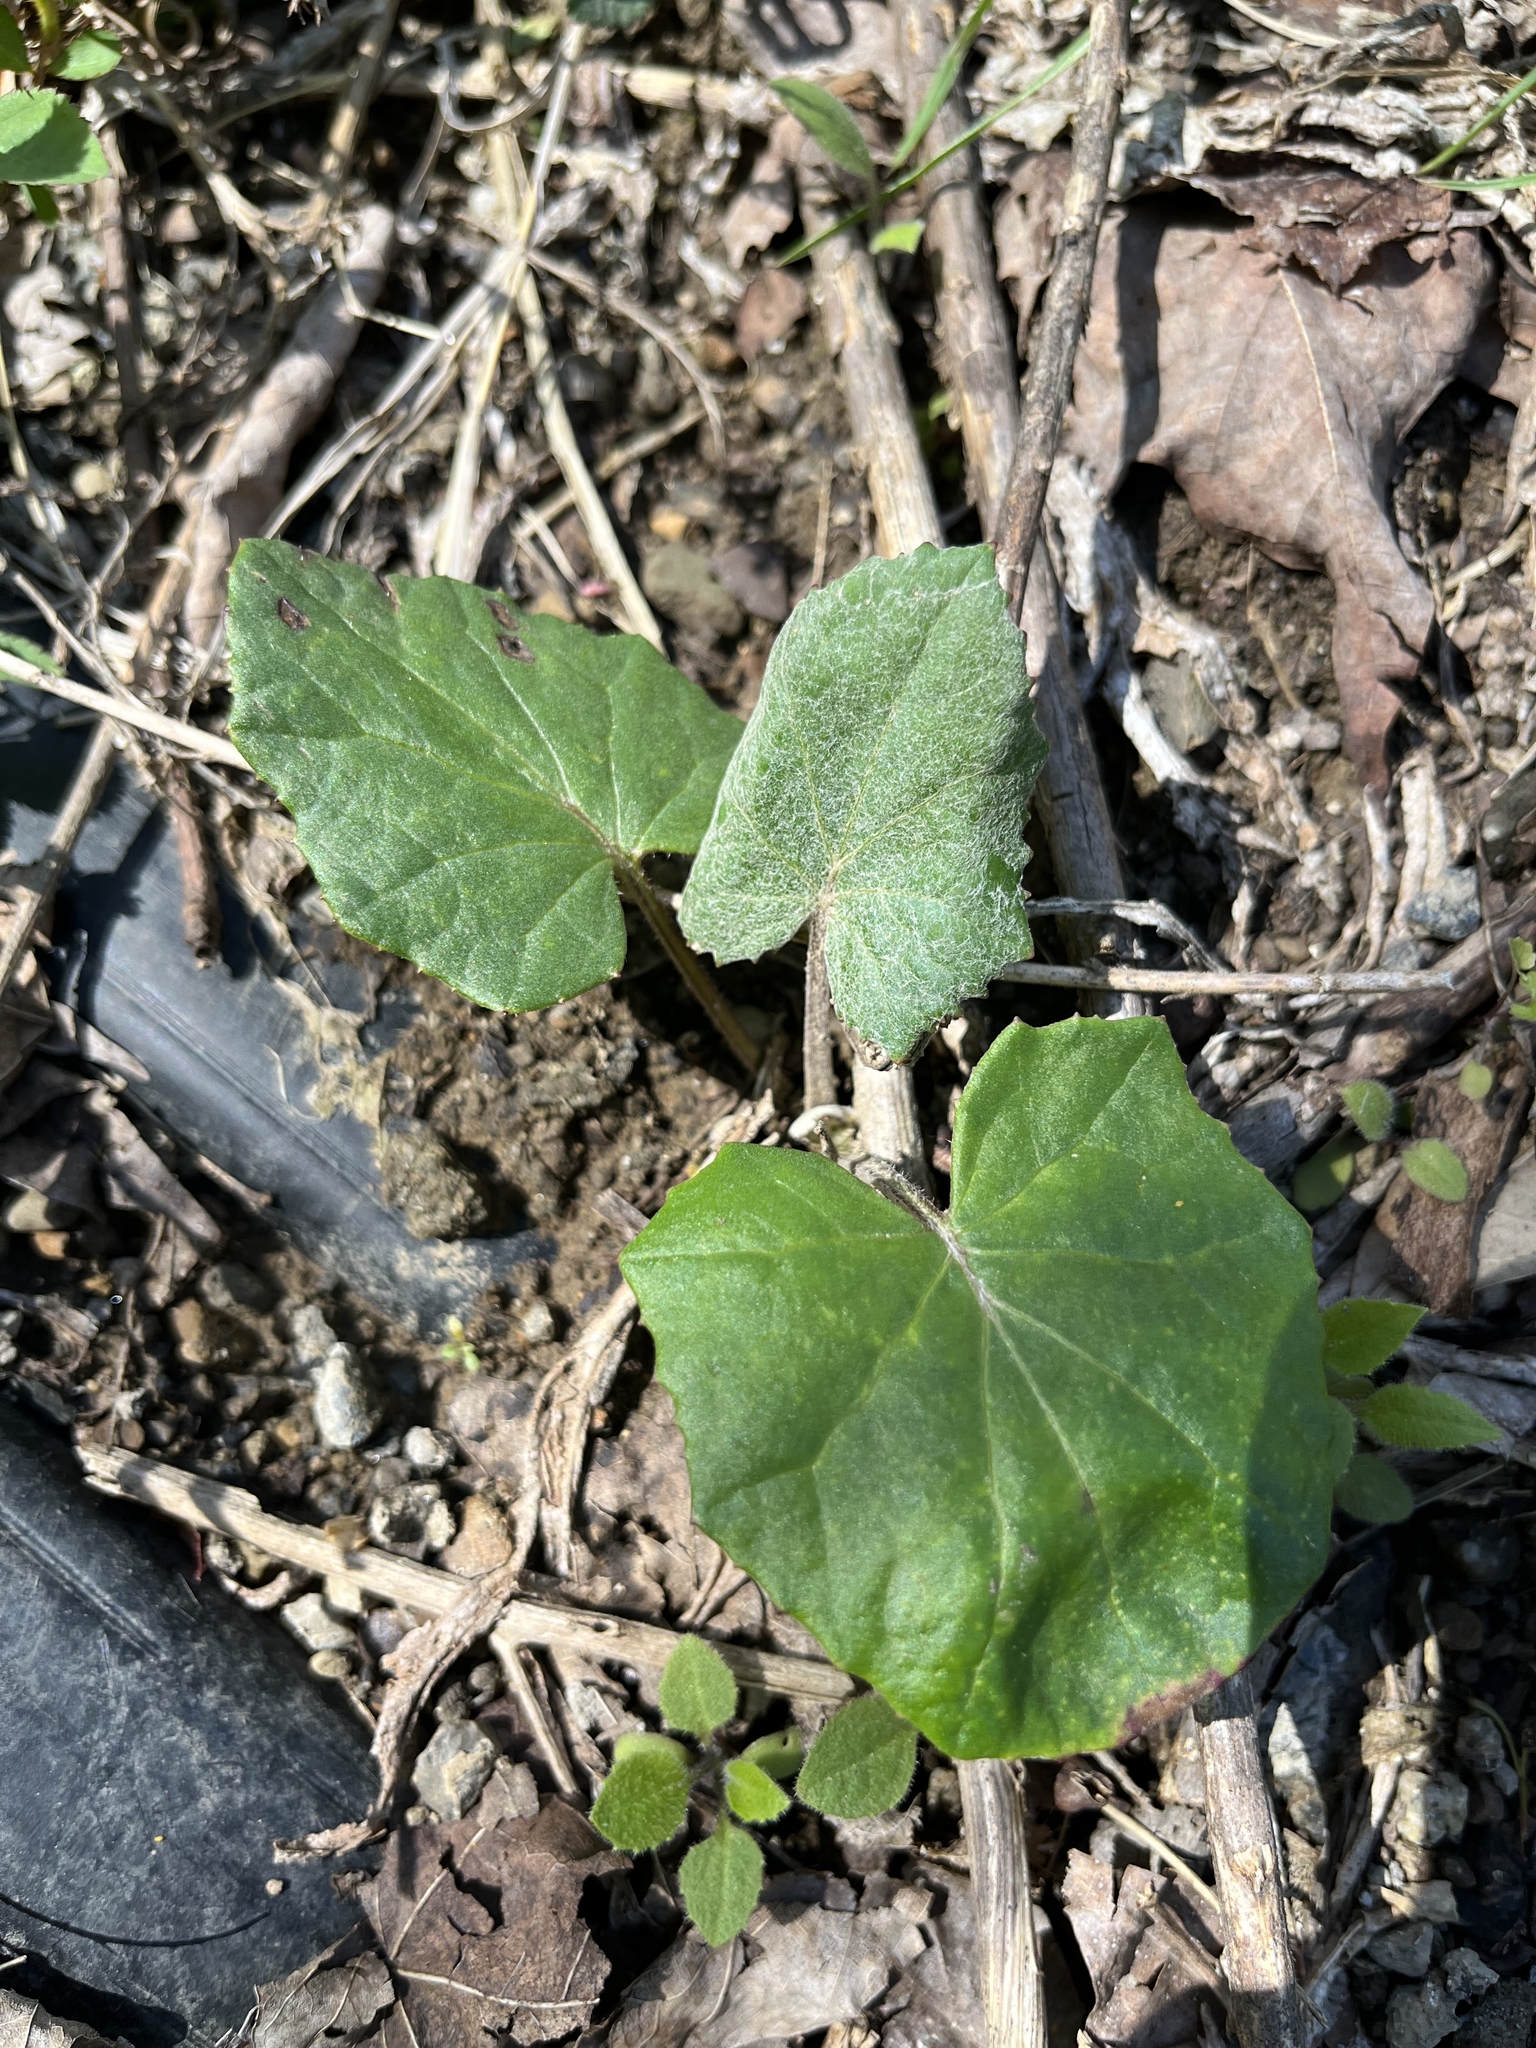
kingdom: Plantae
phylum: Tracheophyta
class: Magnoliopsida
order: Asterales
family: Asteraceae
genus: Tussilago
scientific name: Tussilago farfara
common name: Coltsfoot
